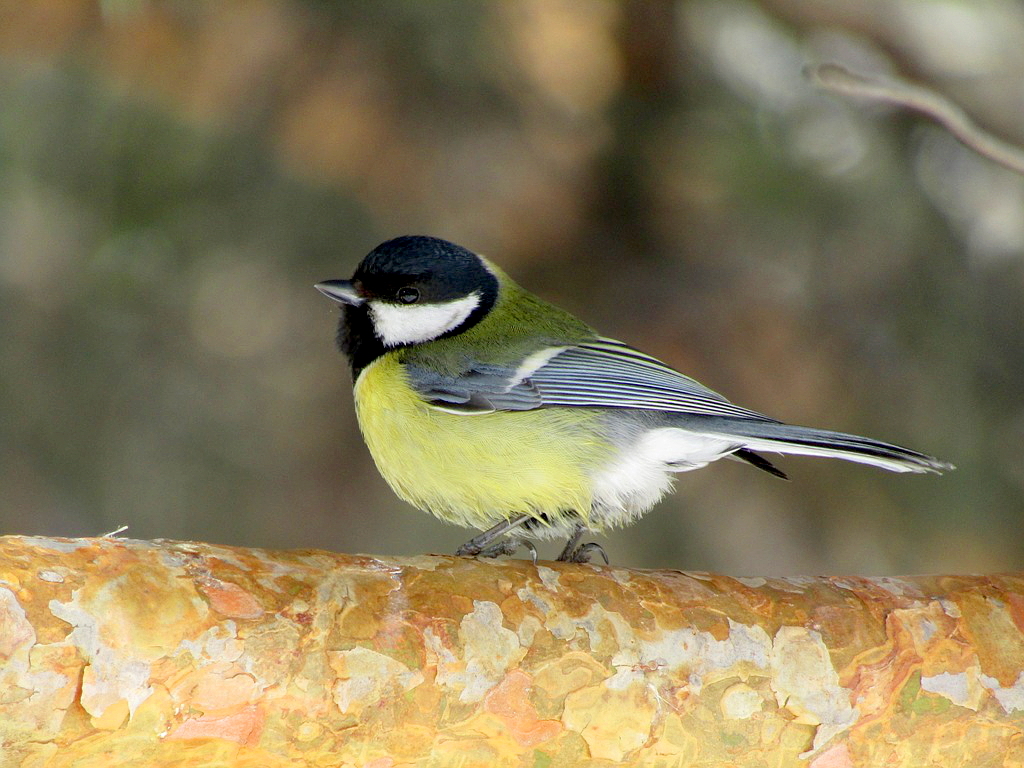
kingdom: Animalia
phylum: Chordata
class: Aves
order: Passeriformes
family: Paridae
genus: Parus
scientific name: Parus major
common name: Great tit
